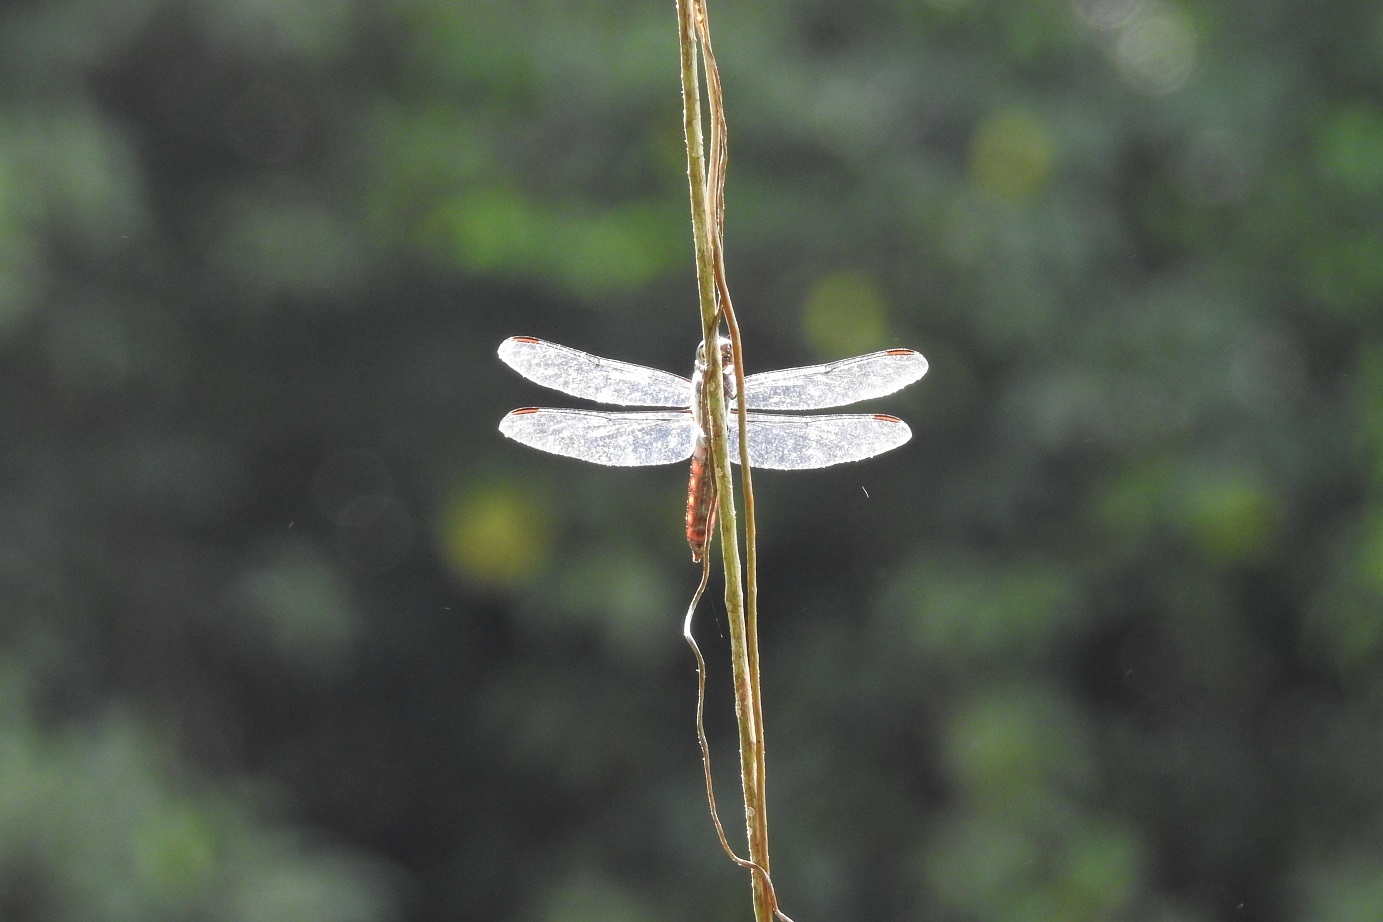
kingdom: Animalia
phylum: Arthropoda
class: Insecta
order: Odonata
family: Libellulidae
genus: Libellula
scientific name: Libellula herculea
